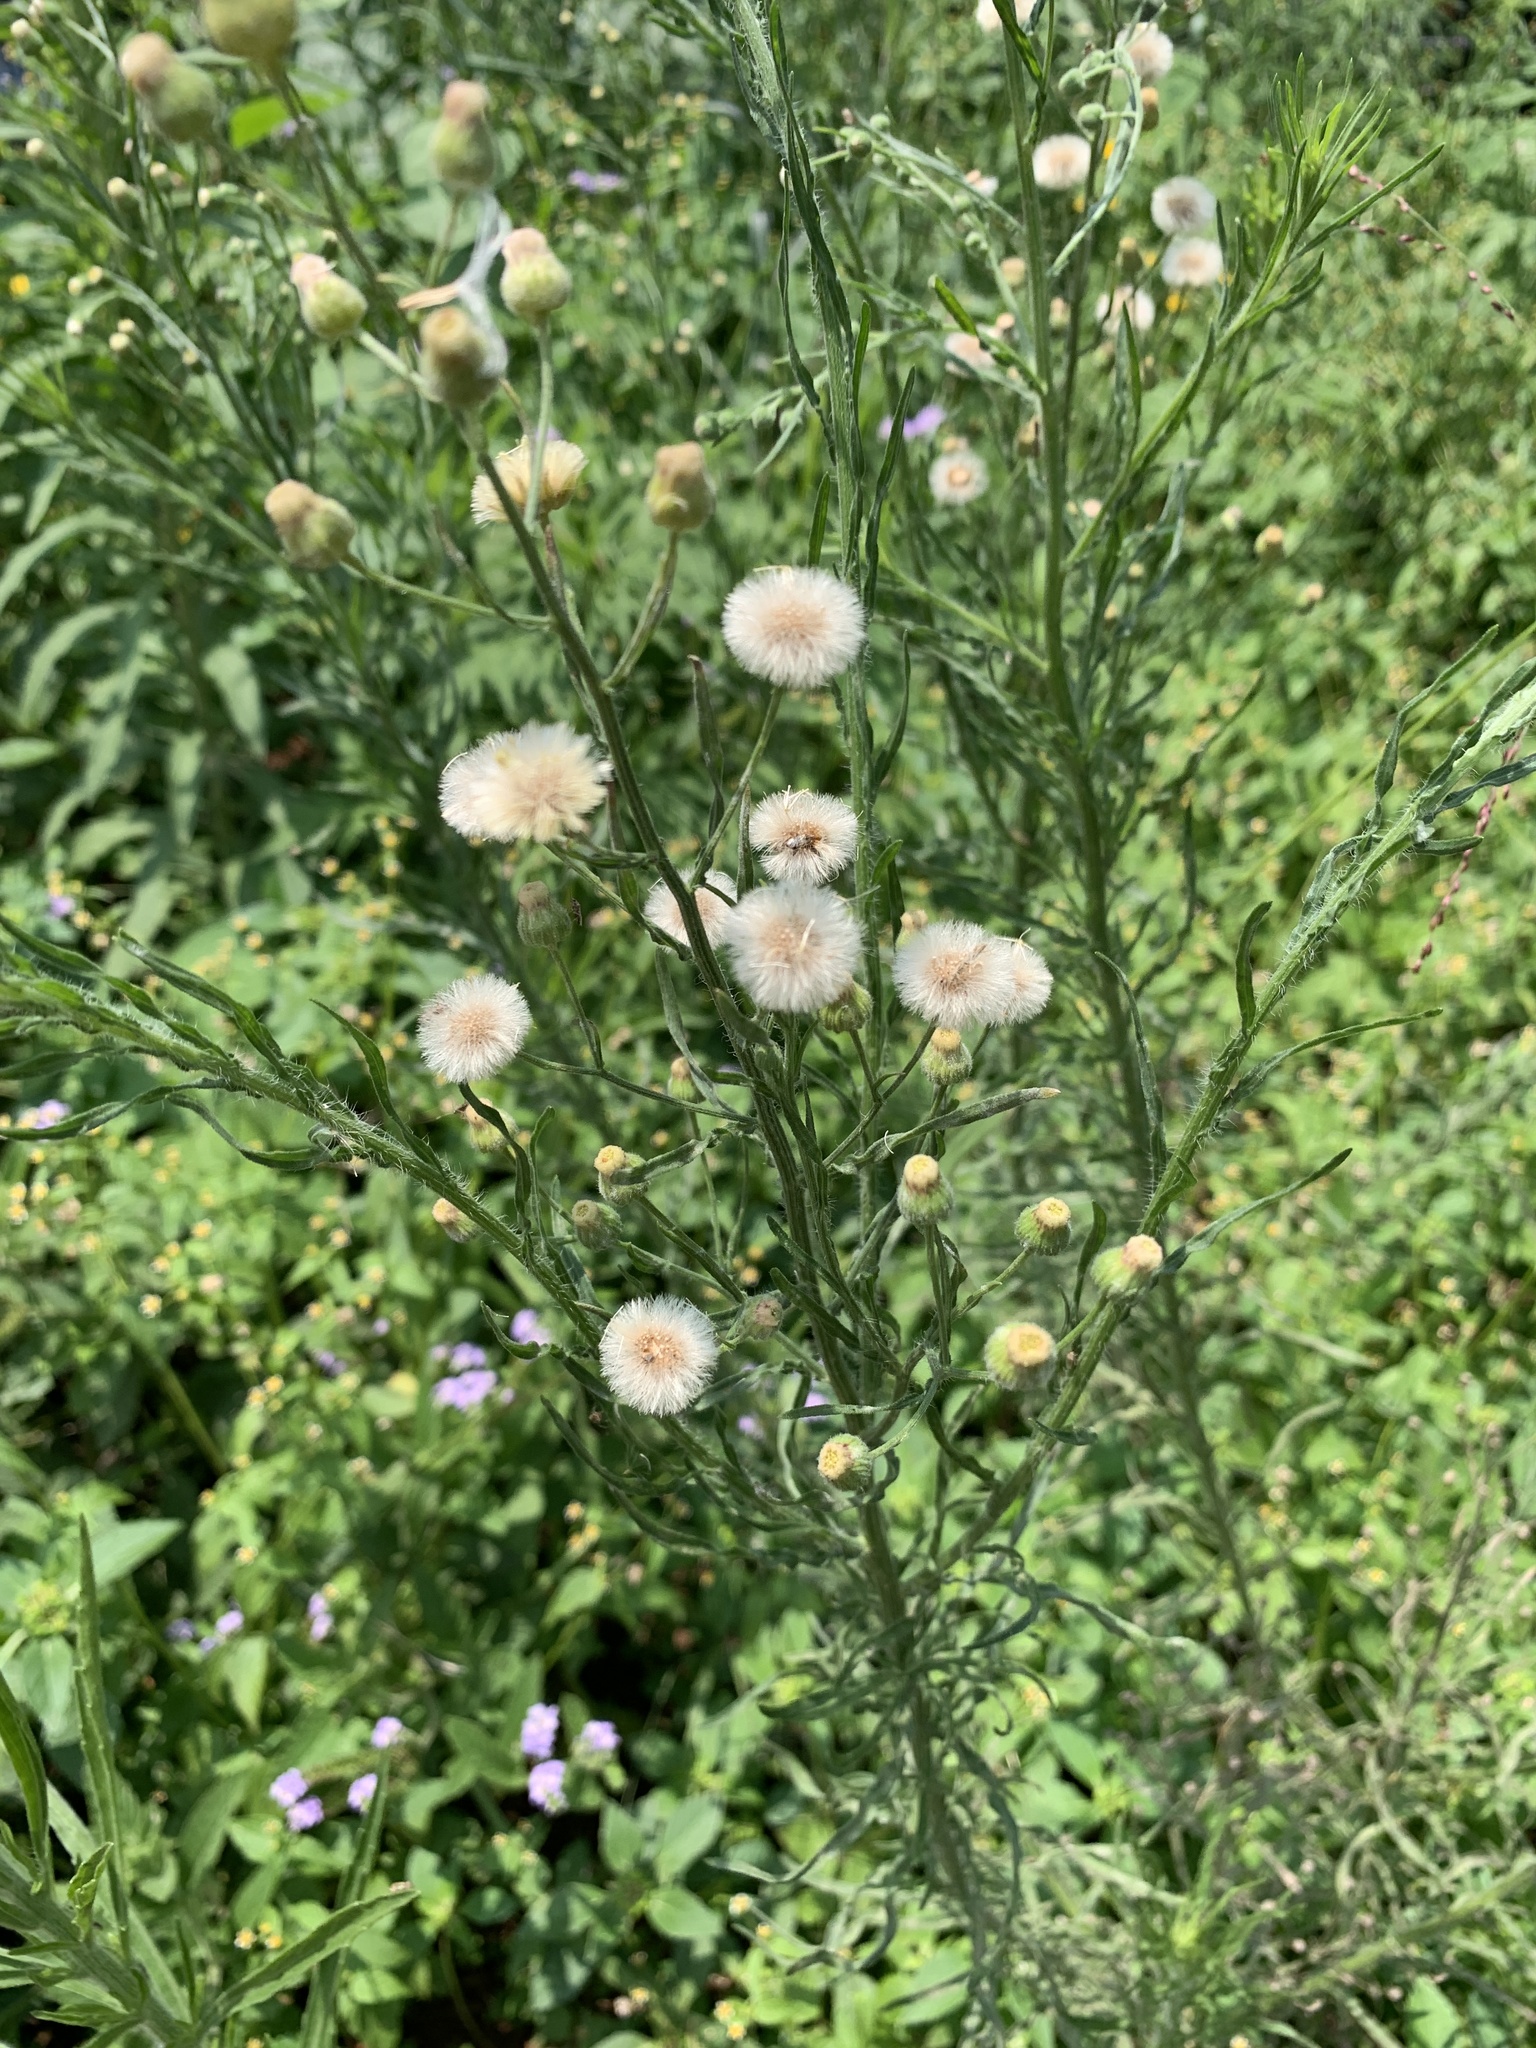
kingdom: Plantae
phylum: Tracheophyta
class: Magnoliopsida
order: Asterales
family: Asteraceae
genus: Erigeron
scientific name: Erigeron bonariensis
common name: Argentine fleabane
